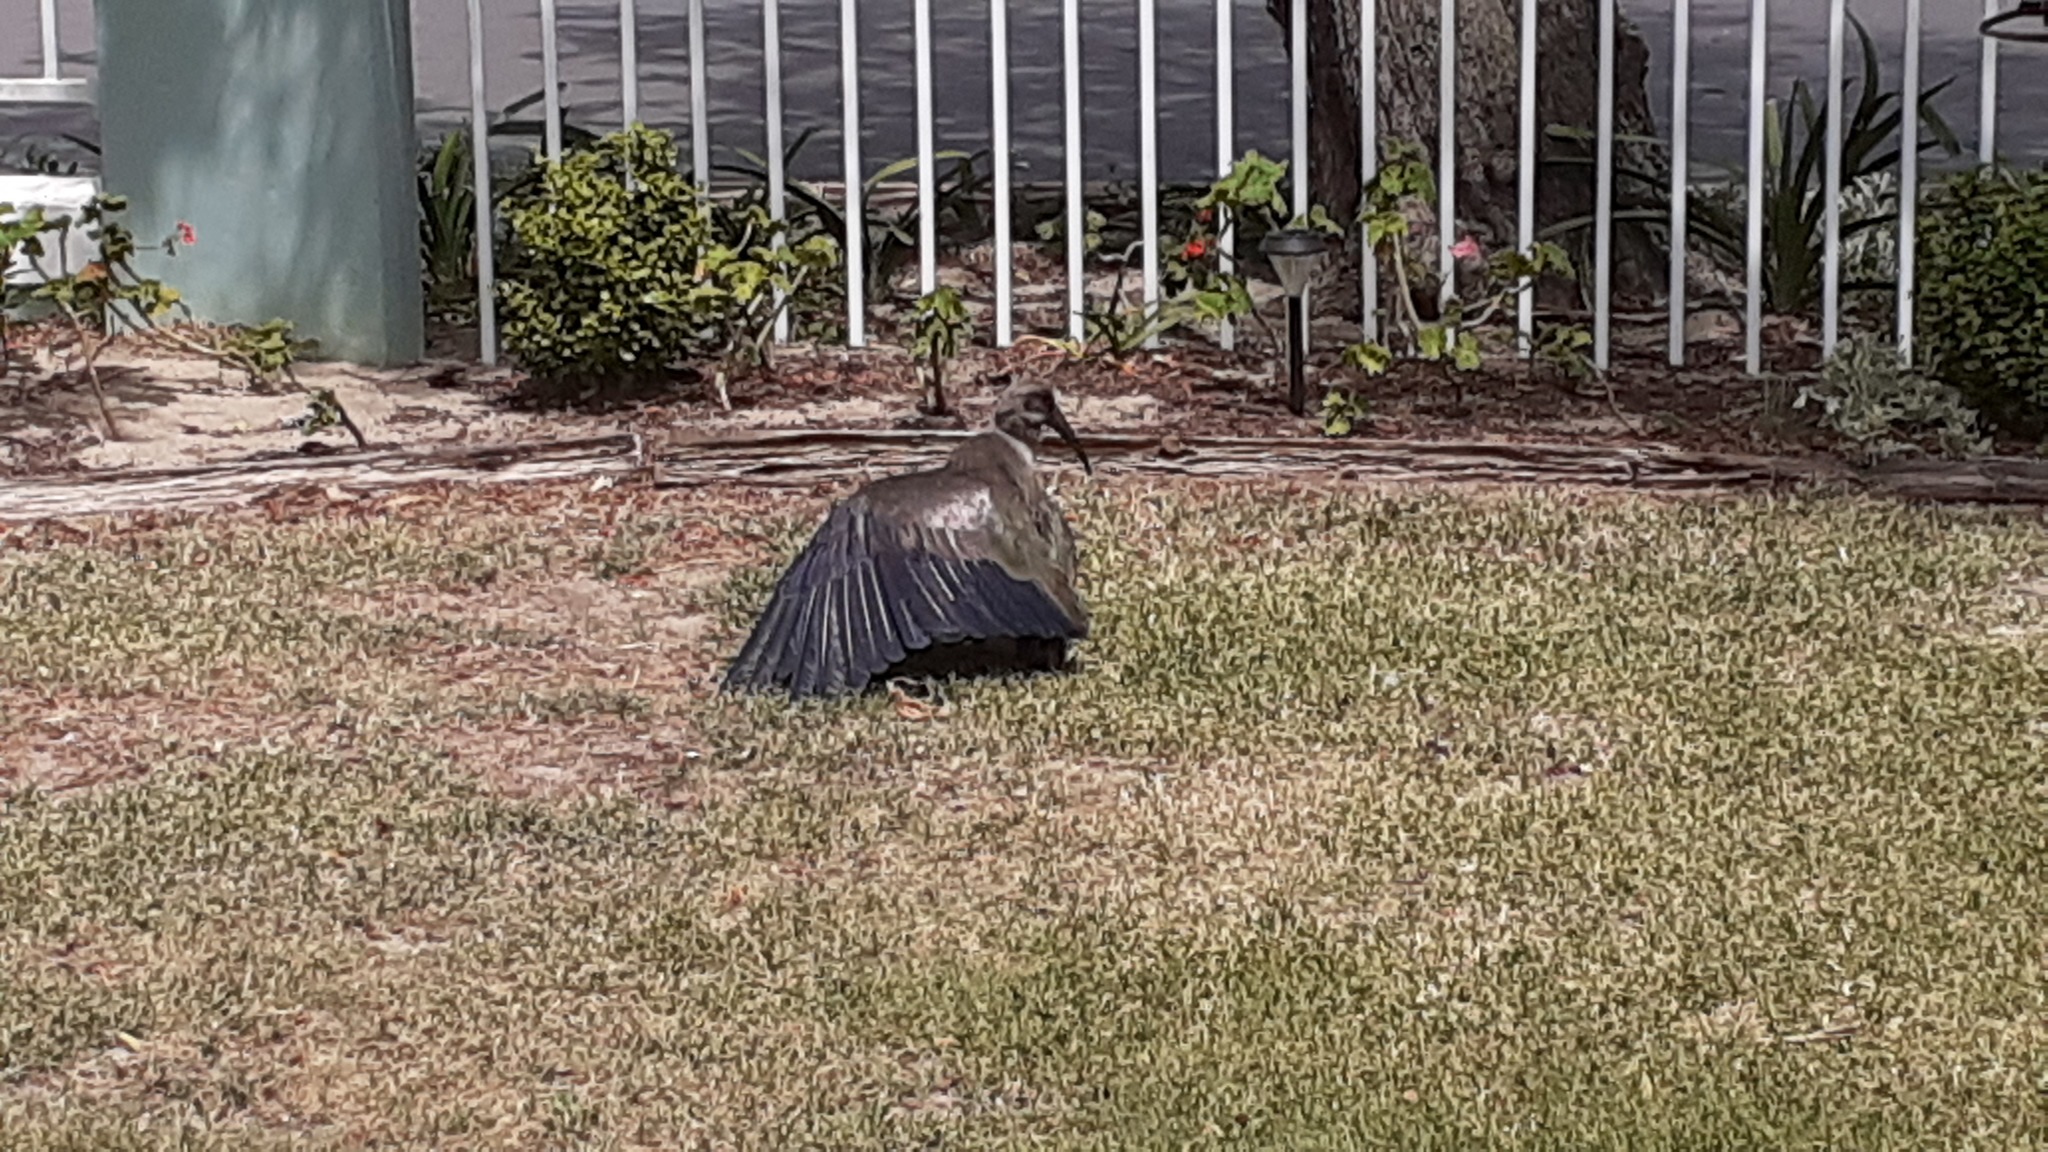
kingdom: Animalia
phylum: Chordata
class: Aves
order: Pelecaniformes
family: Threskiornithidae
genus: Bostrychia
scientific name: Bostrychia hagedash
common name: Hadada ibis
